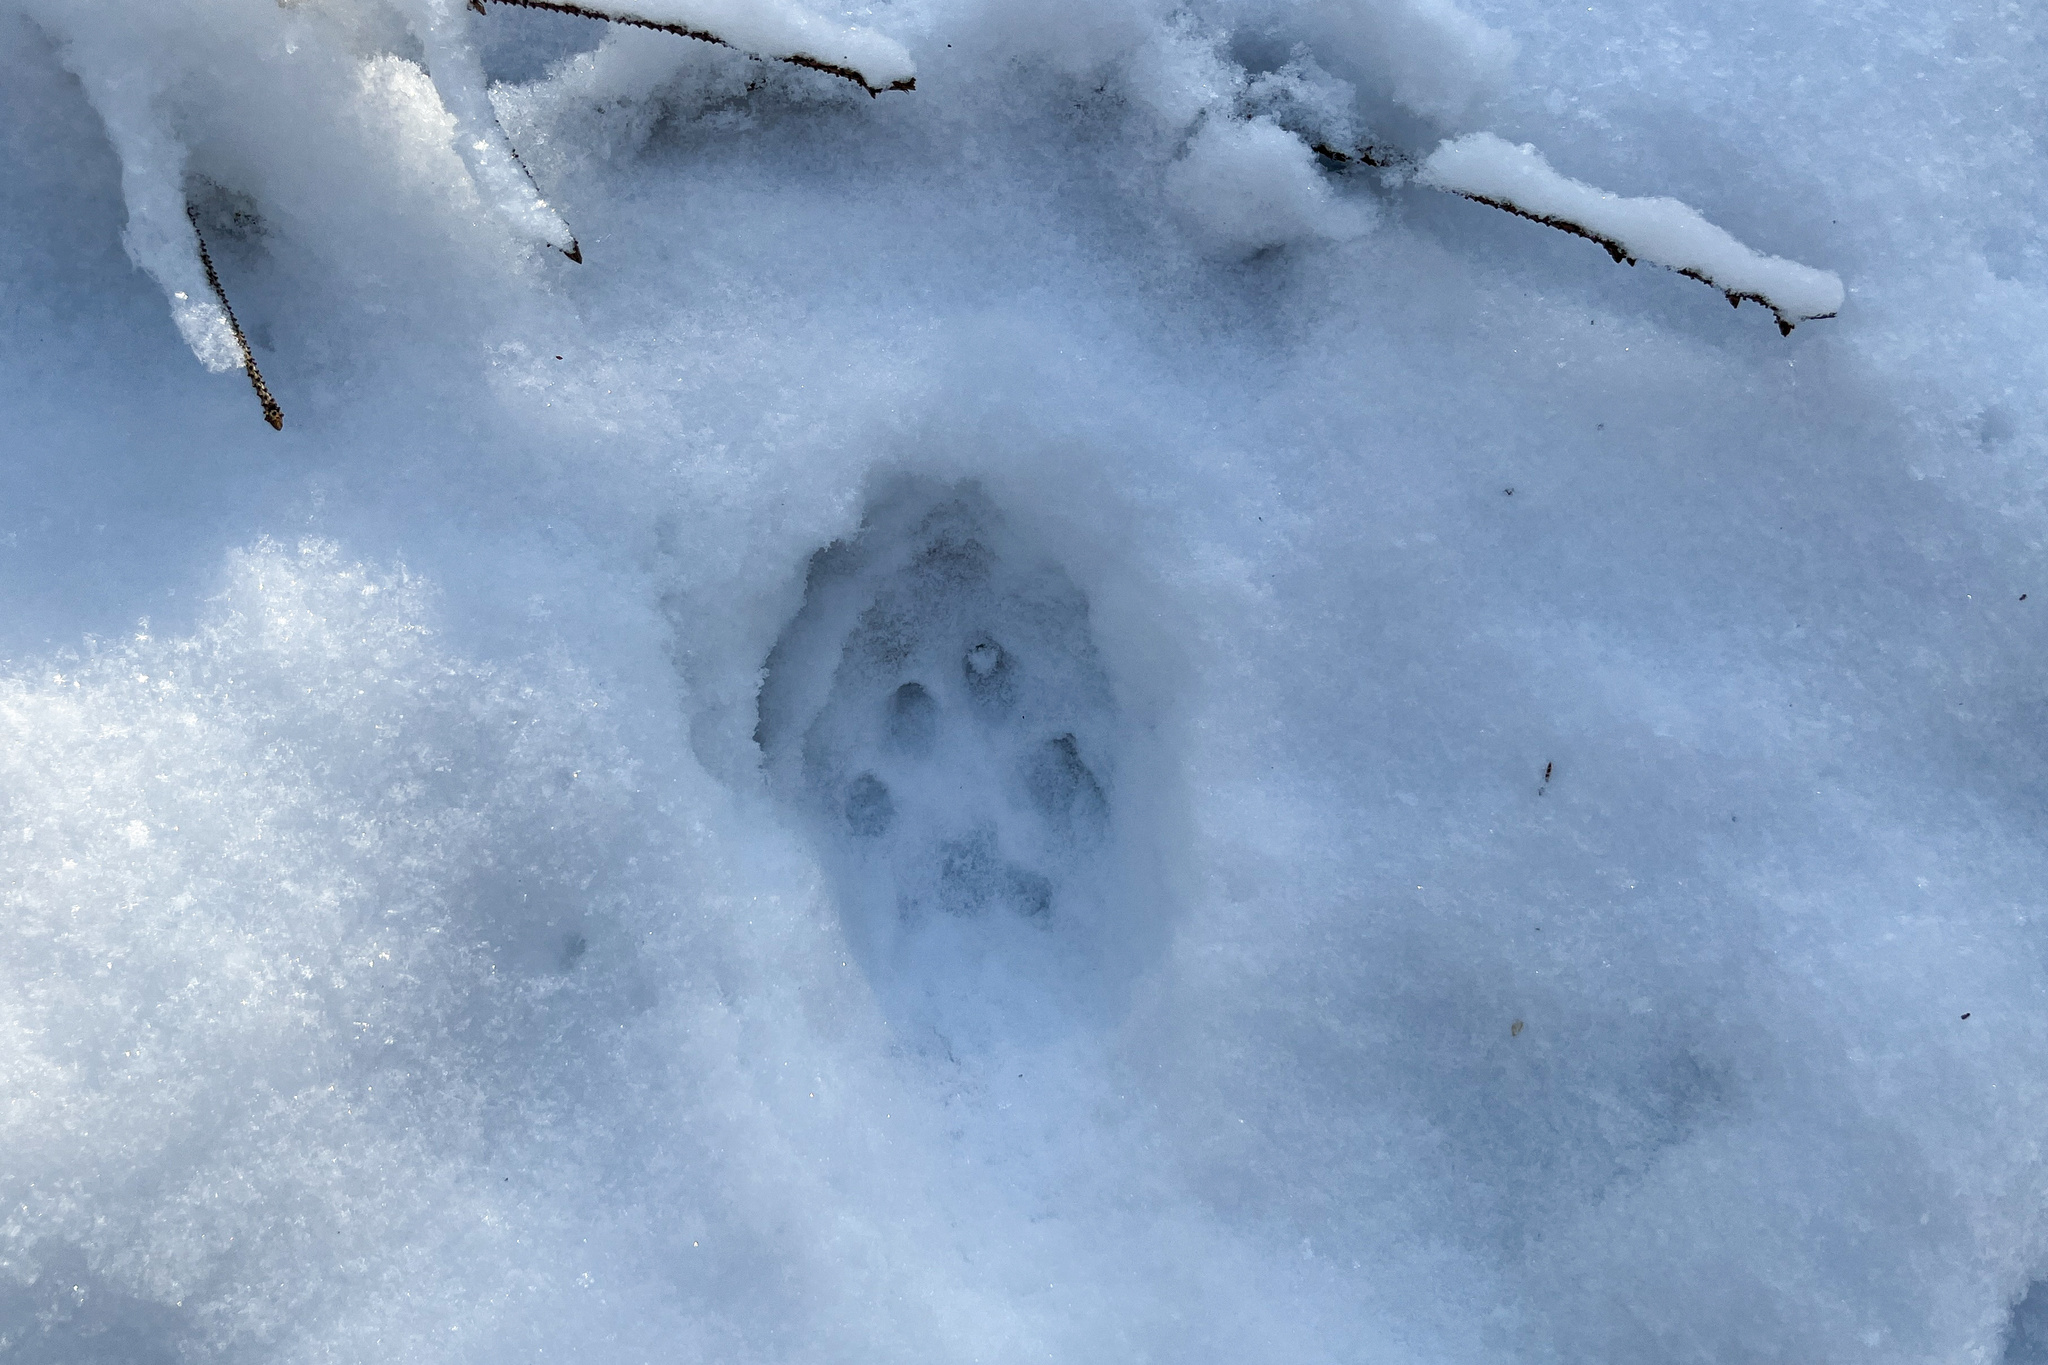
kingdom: Animalia
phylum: Chordata
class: Mammalia
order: Carnivora
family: Felidae
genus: Lynx
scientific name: Lynx lynx
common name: Eurasian lynx
